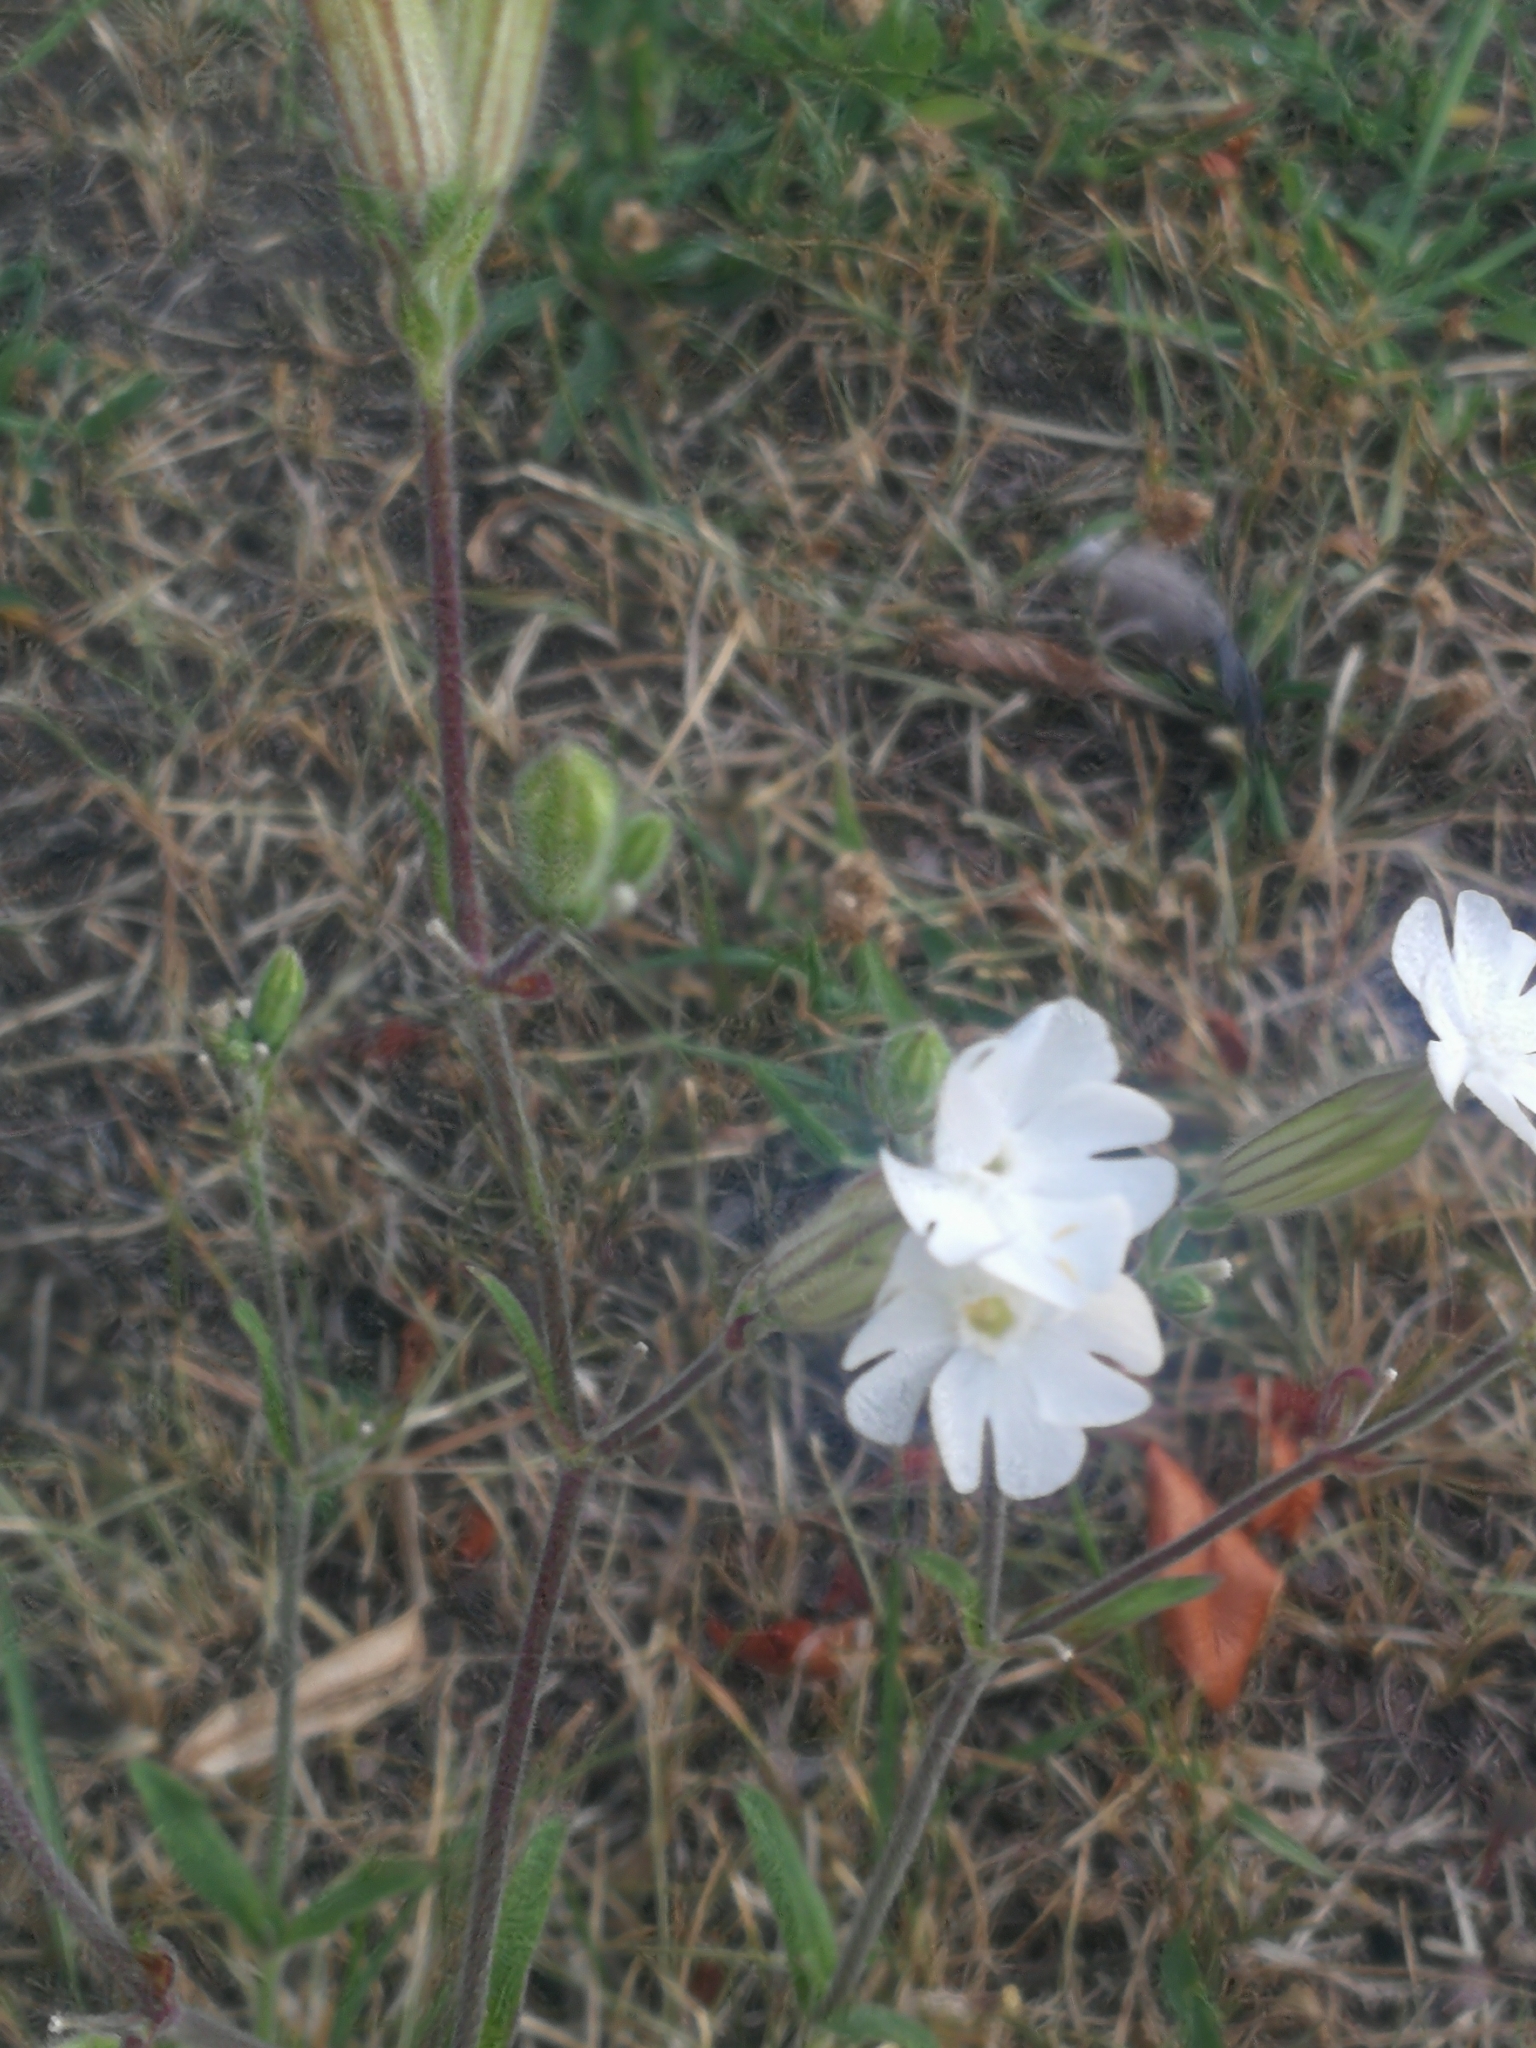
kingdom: Plantae
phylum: Tracheophyta
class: Magnoliopsida
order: Caryophyllales
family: Caryophyllaceae
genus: Silene
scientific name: Silene latifolia
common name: White campion
